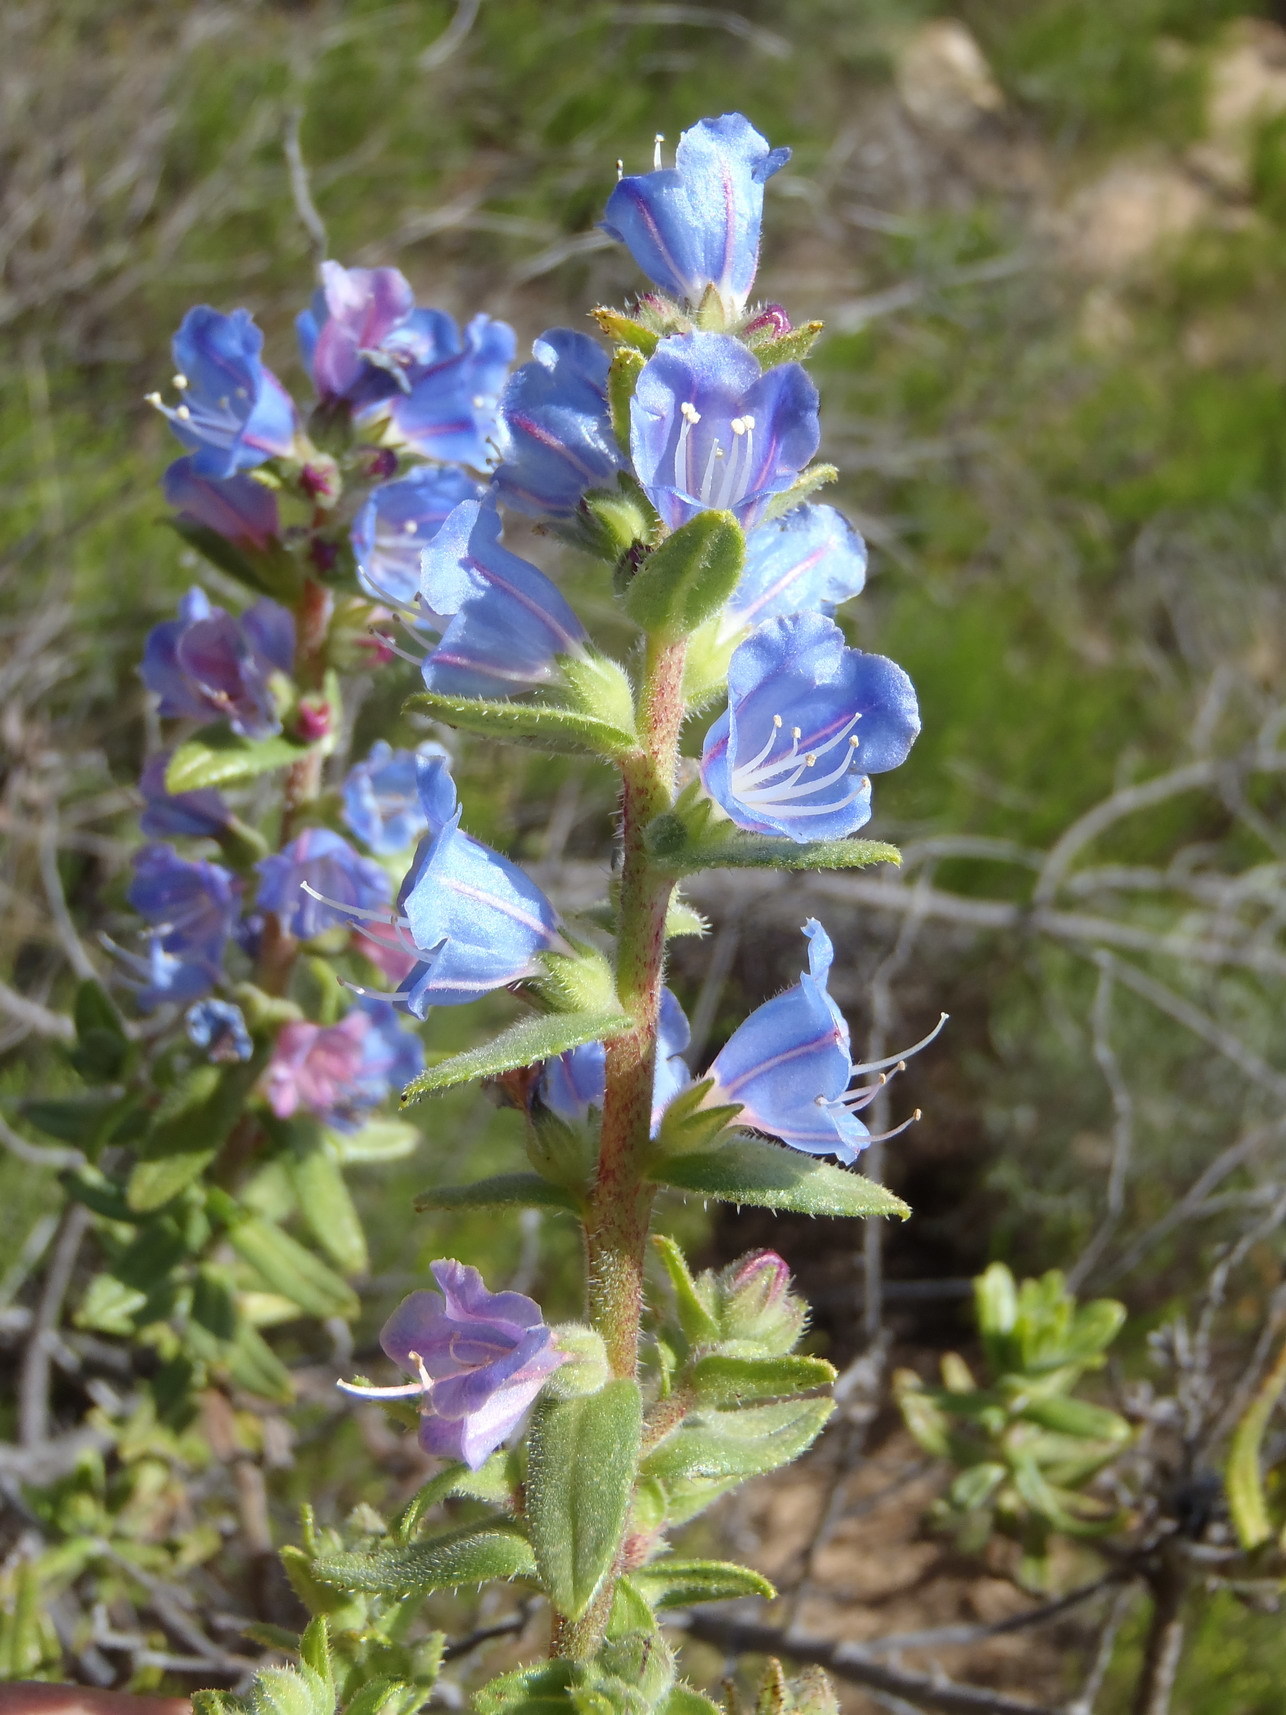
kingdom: Plantae
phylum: Tracheophyta
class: Magnoliopsida
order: Boraginales
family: Boraginaceae
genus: Lobostemon
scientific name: Lobostemon stachydeus
